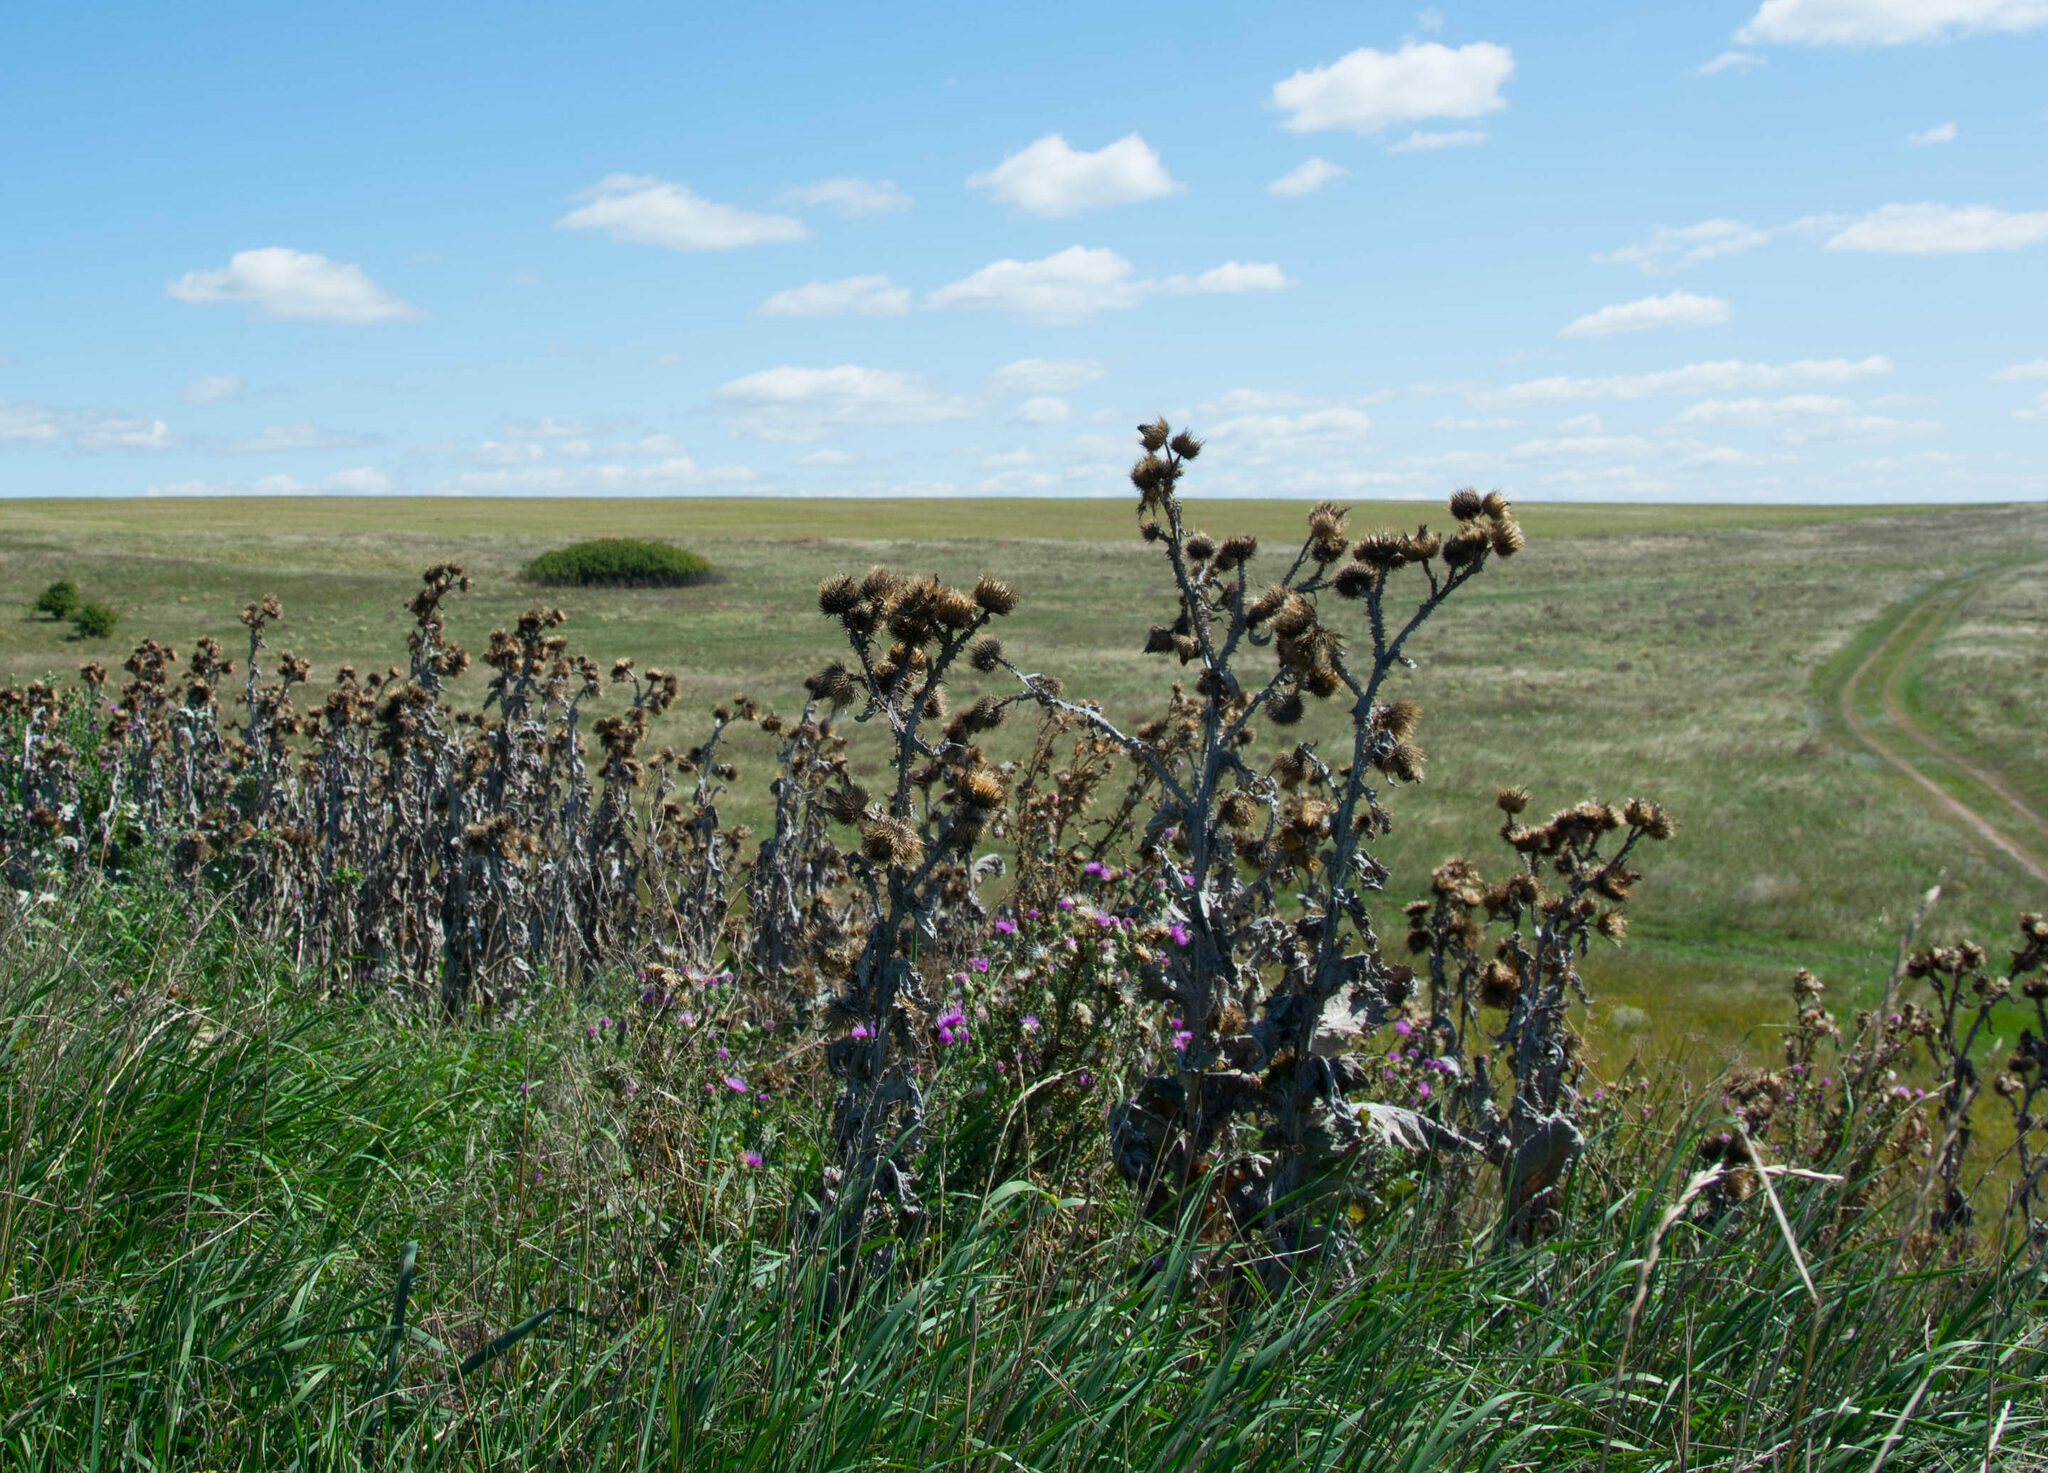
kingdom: Plantae
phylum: Tracheophyta
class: Magnoliopsida
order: Asterales
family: Asteraceae
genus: Onopordum
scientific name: Onopordum acanthium
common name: Scotch thistle
